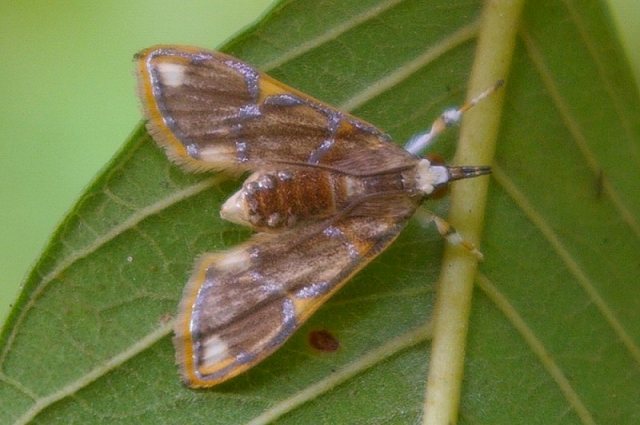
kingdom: Animalia
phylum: Arthropoda
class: Insecta
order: Lepidoptera
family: Crambidae
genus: Cirrhochrista
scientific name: Cirrhochrista kosemponialis
